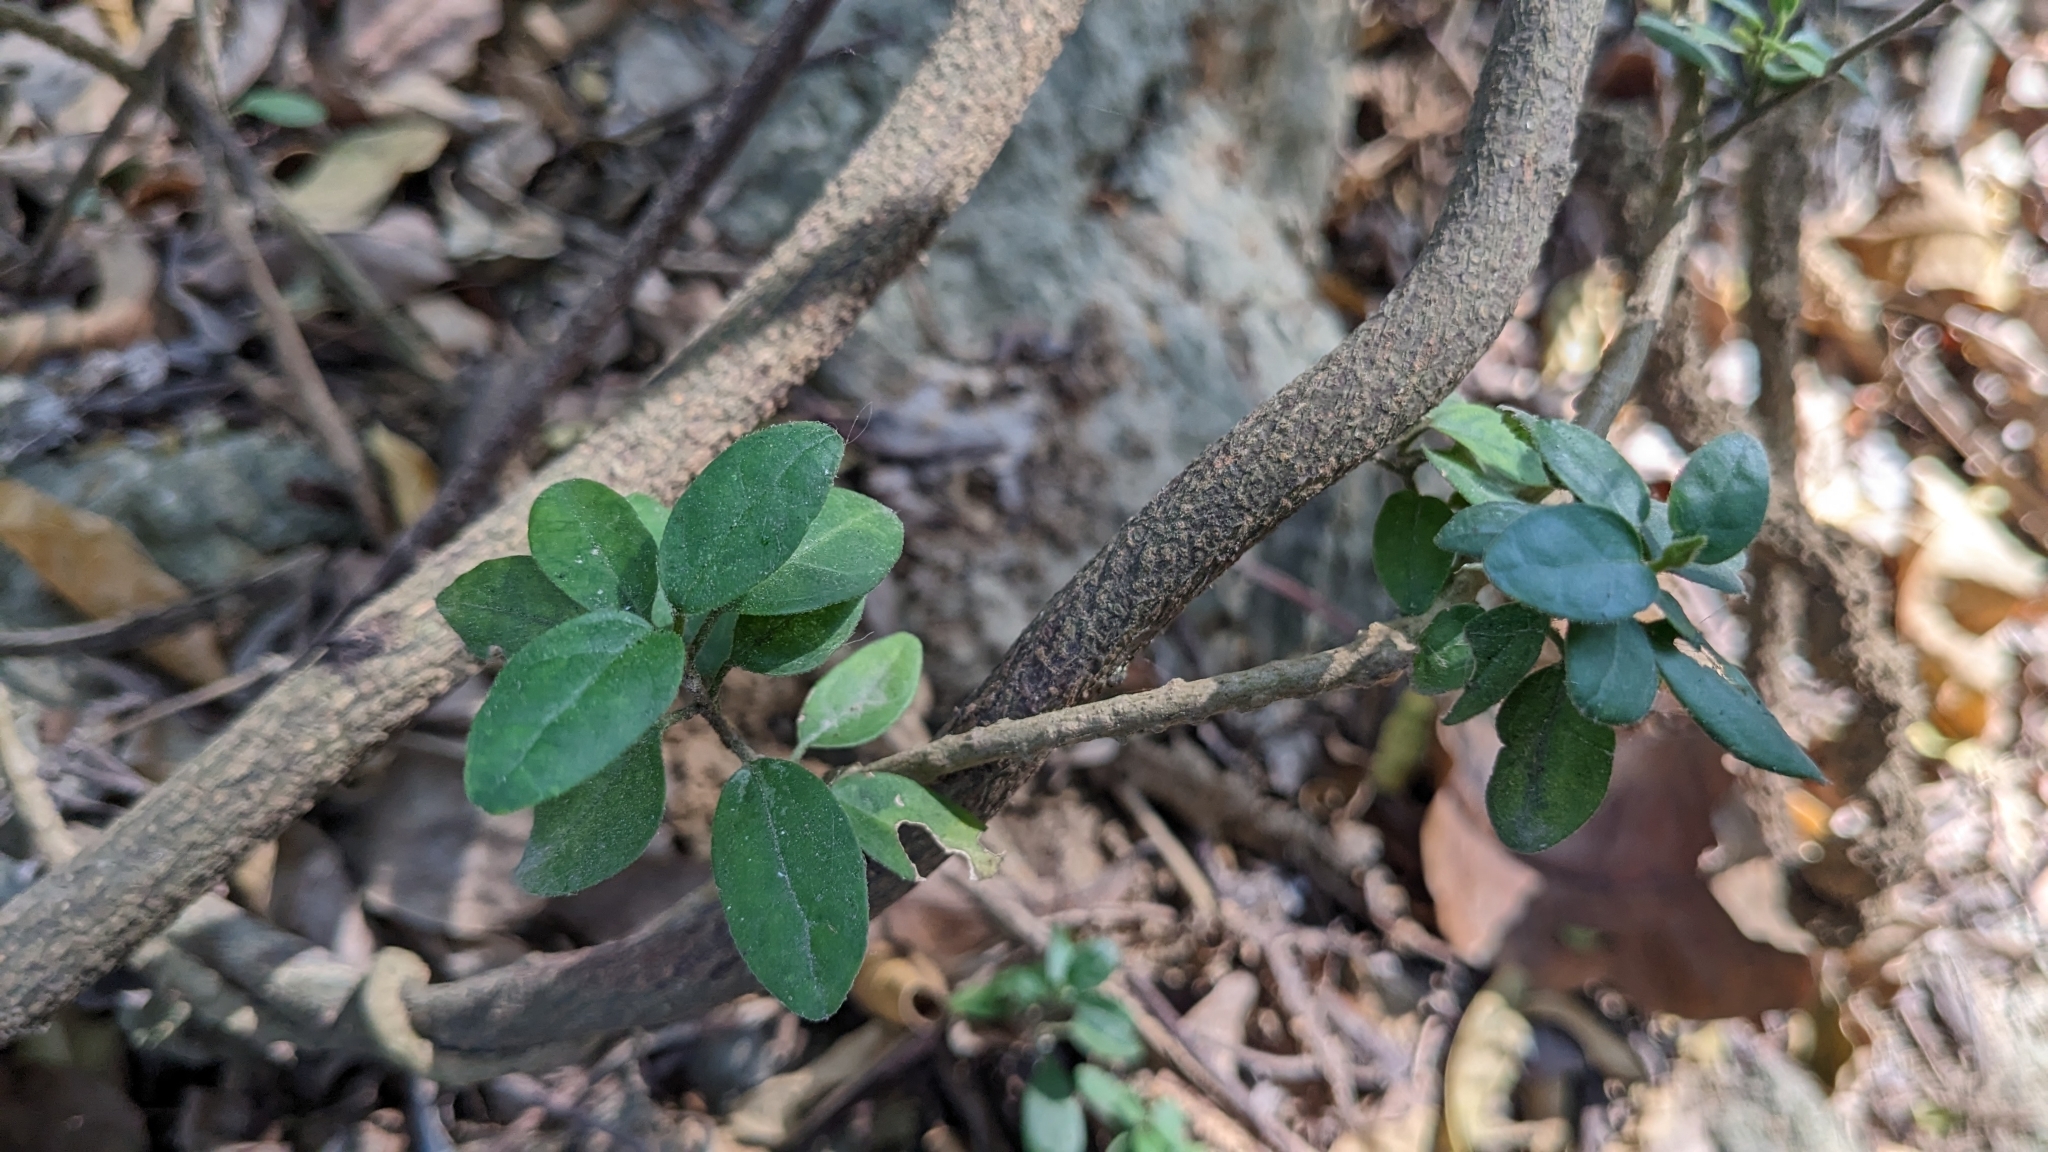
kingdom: Plantae
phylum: Tracheophyta
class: Magnoliopsida
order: Gentianales
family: Apocynaceae
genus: Gymnema
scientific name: Gymnema sylvestre
